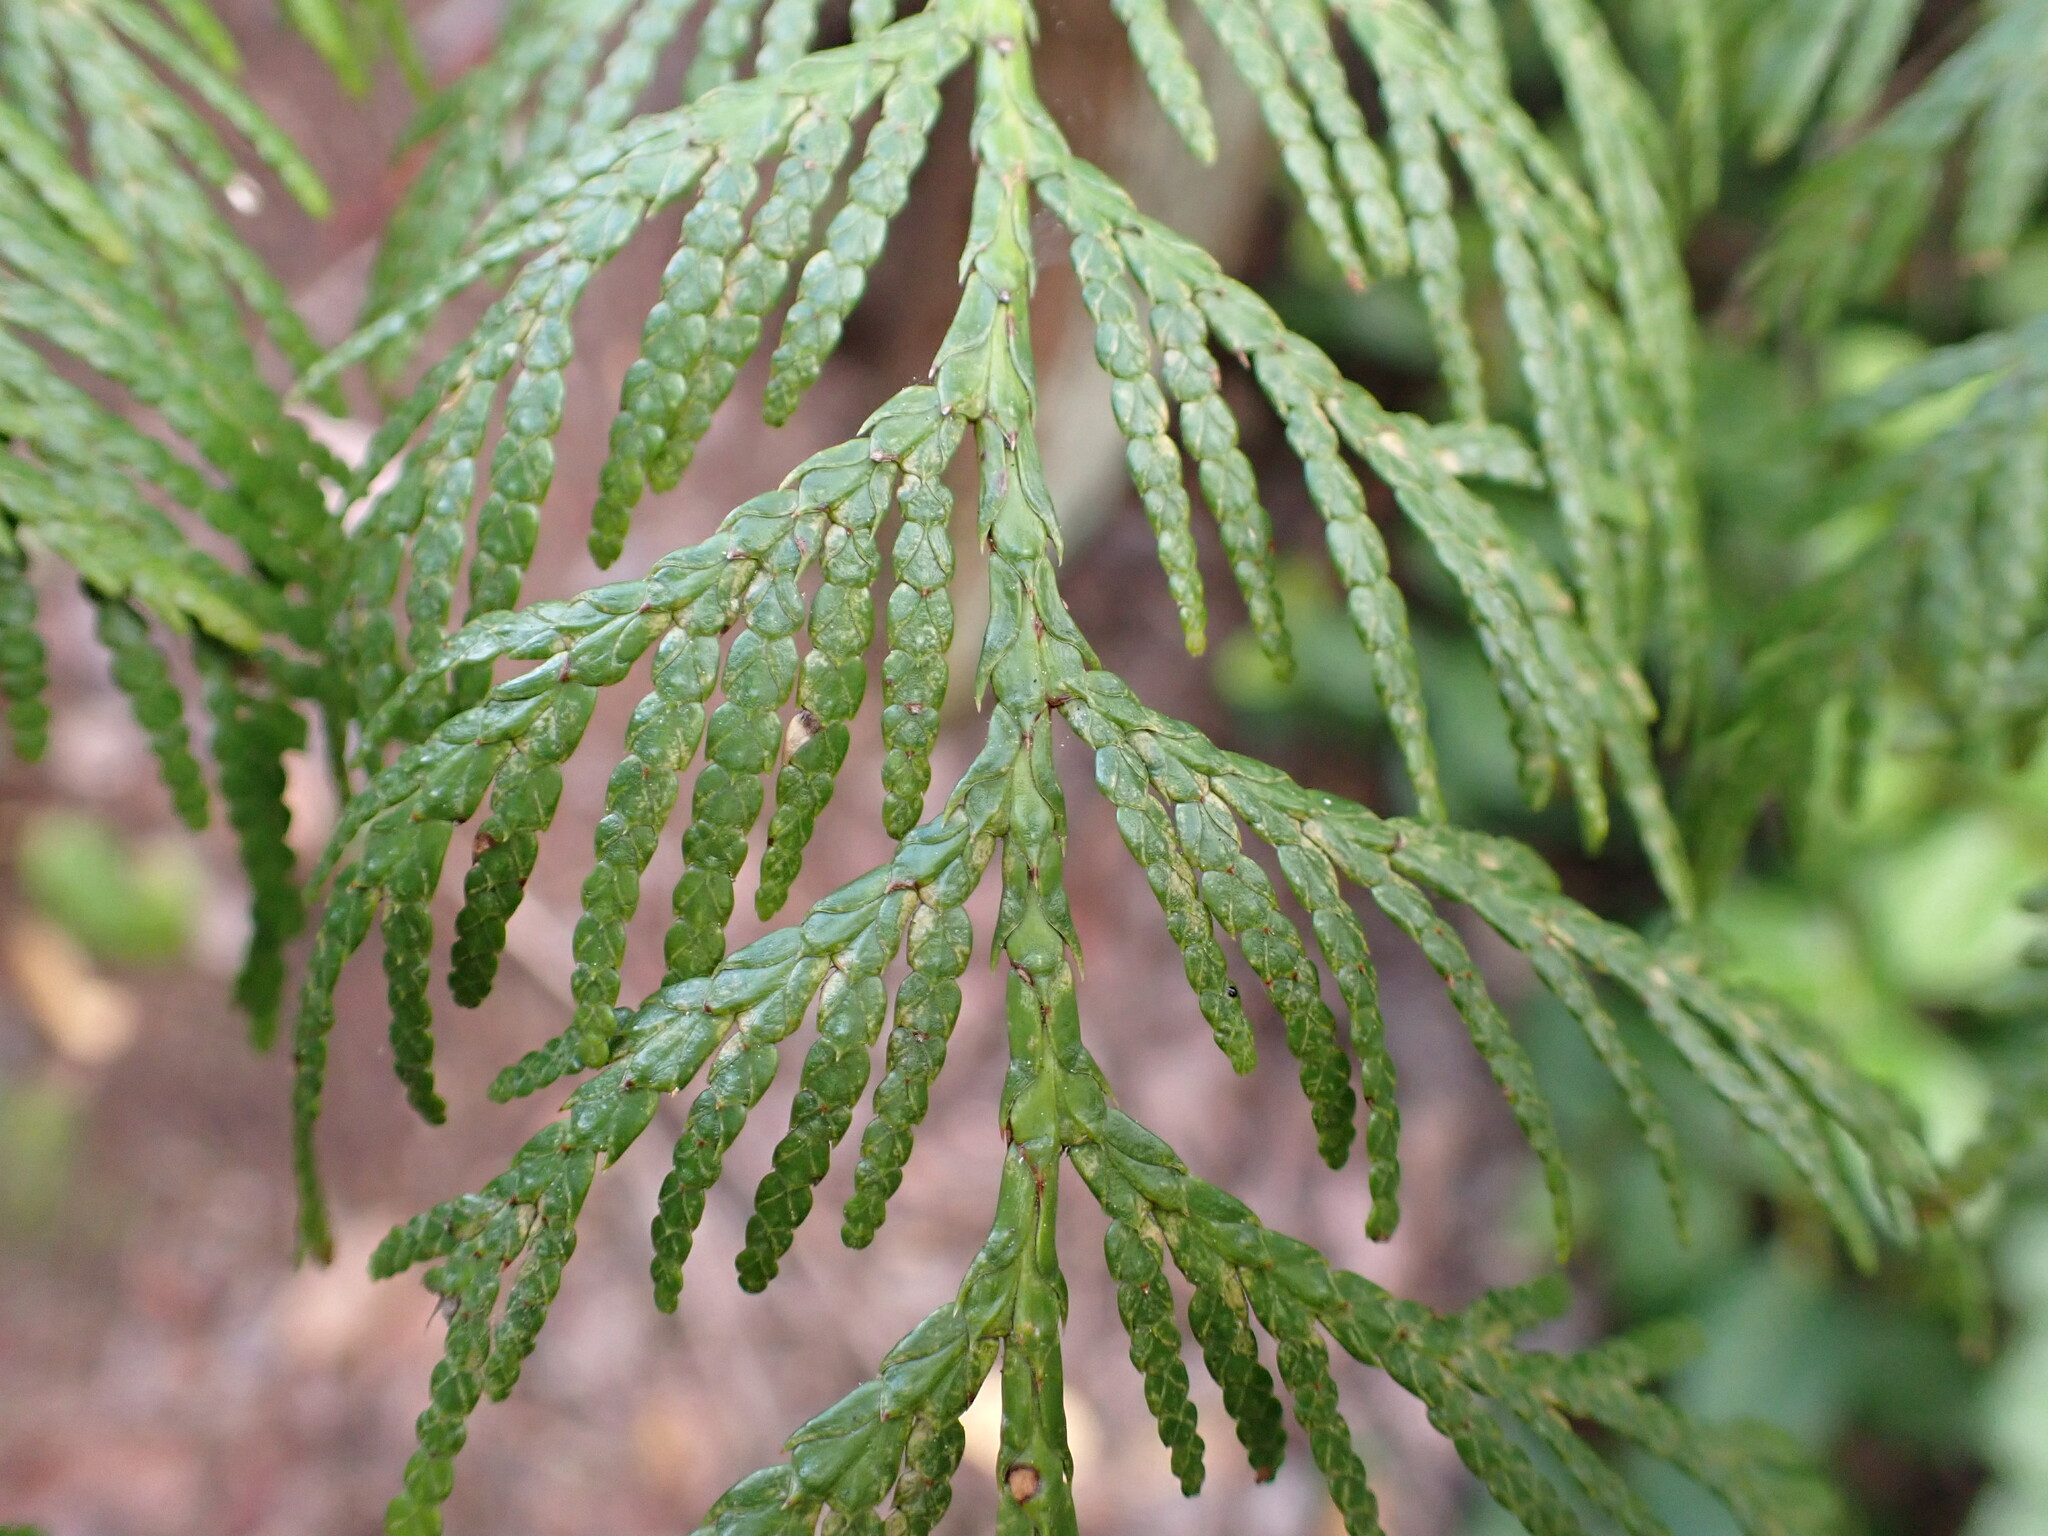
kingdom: Plantae
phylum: Tracheophyta
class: Pinopsida
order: Pinales
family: Cupressaceae
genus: Thuja
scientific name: Thuja plicata
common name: Western red-cedar
